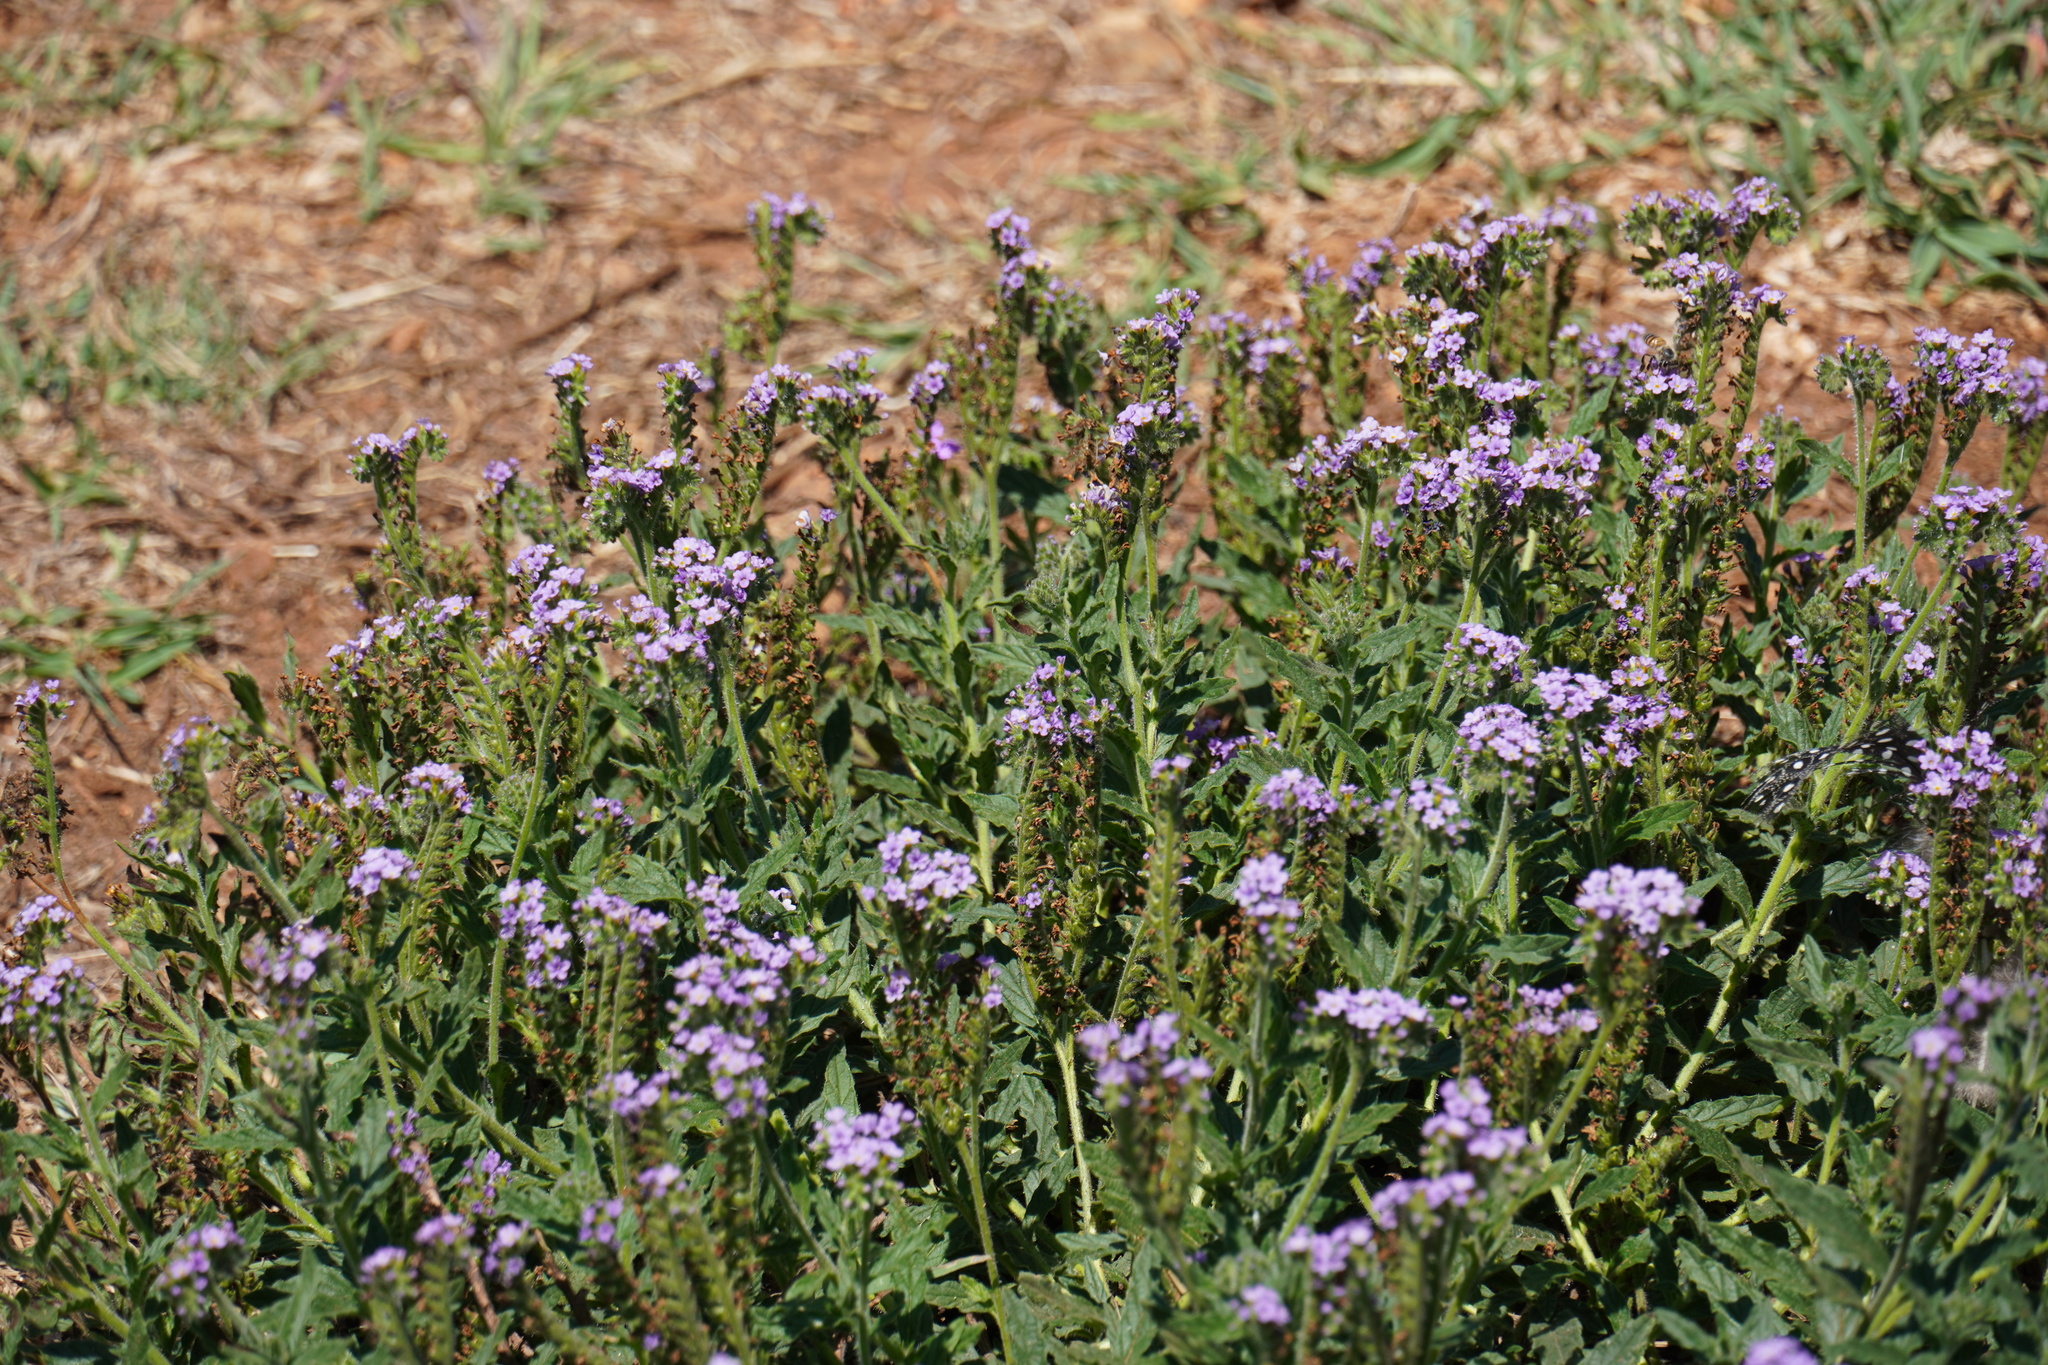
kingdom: Plantae
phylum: Tracheophyta
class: Magnoliopsida
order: Boraginales
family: Heliotropiaceae
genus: Heliotropium
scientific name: Heliotropium amplexicaule
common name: Clasping heliotrope
